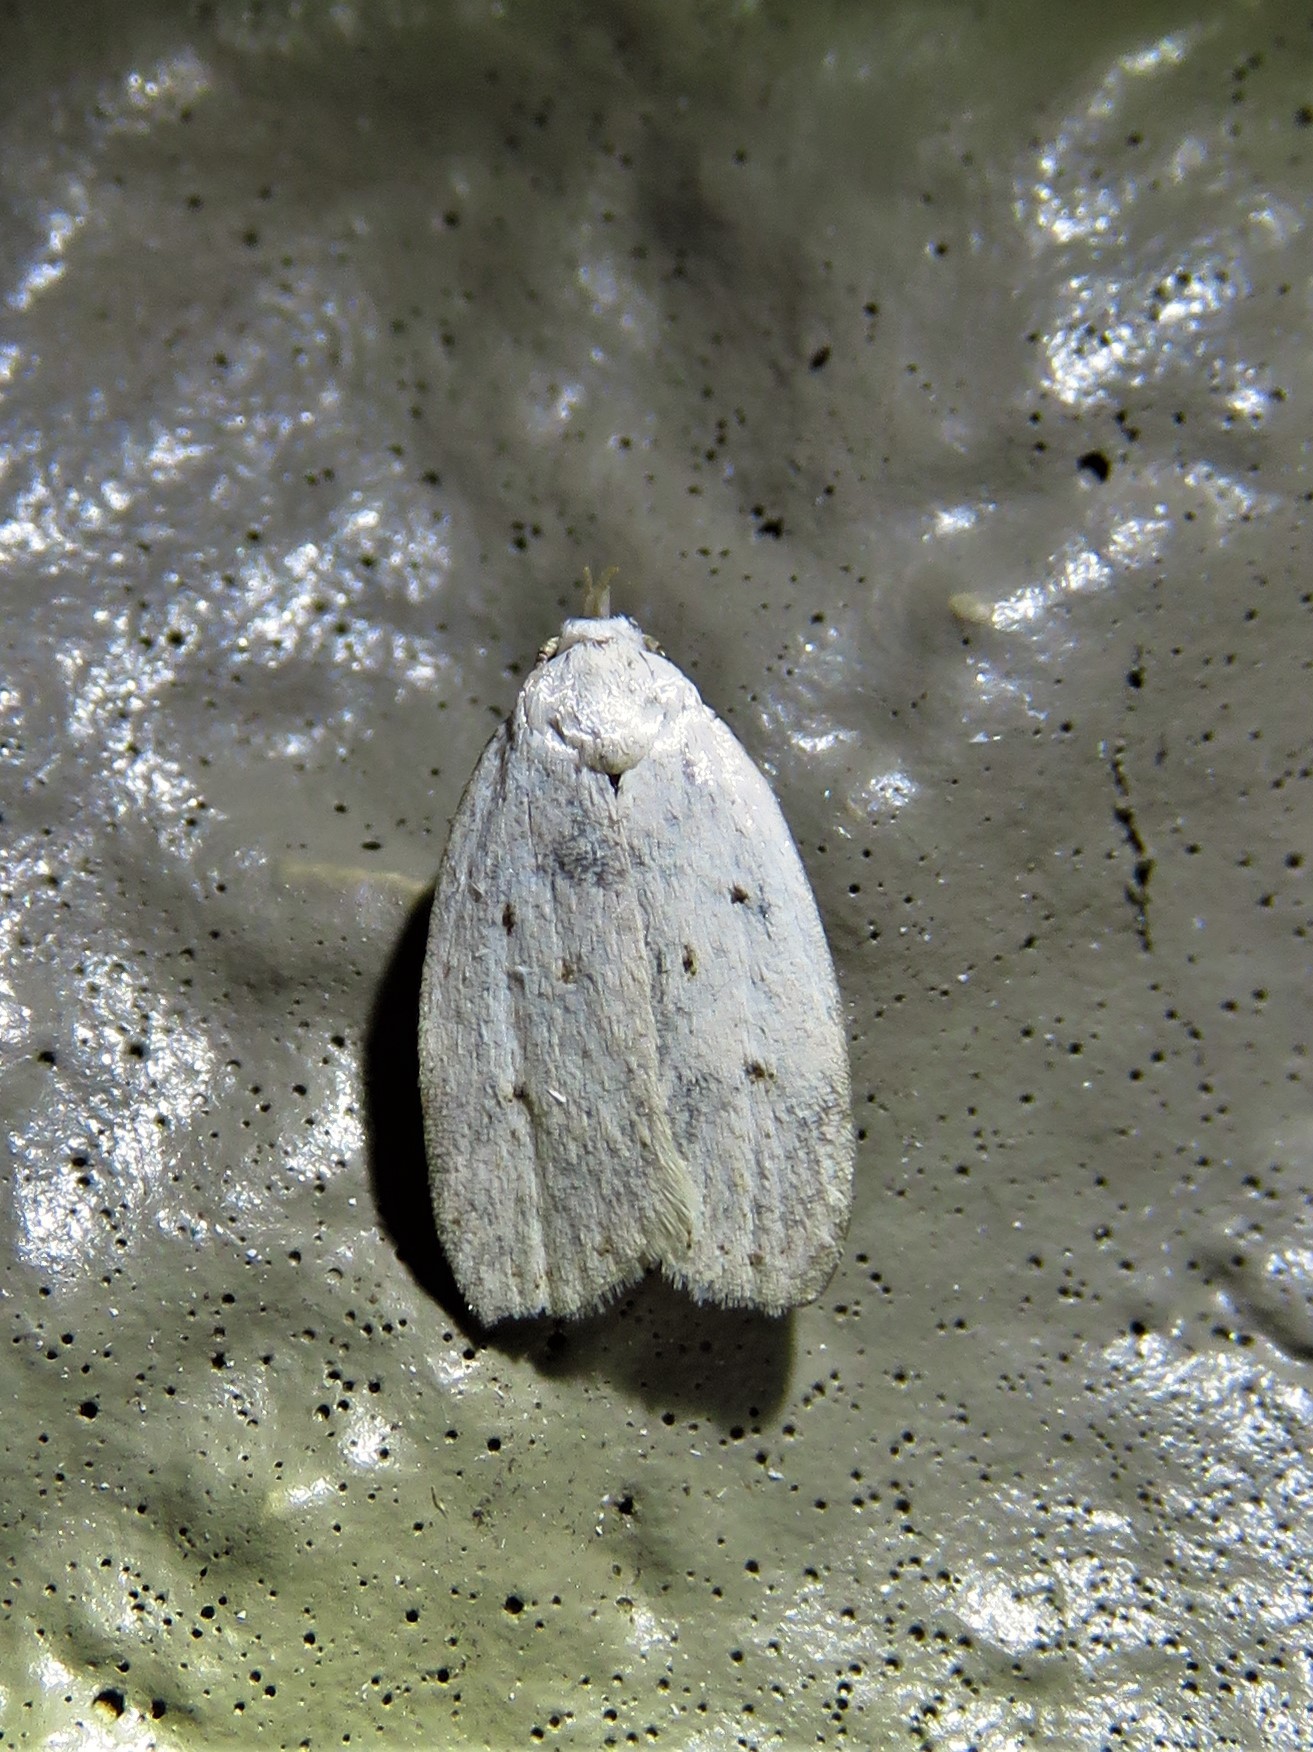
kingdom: Animalia
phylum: Arthropoda
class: Insecta
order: Lepidoptera
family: Oecophoridae
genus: Inga
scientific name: Inga cretacea
